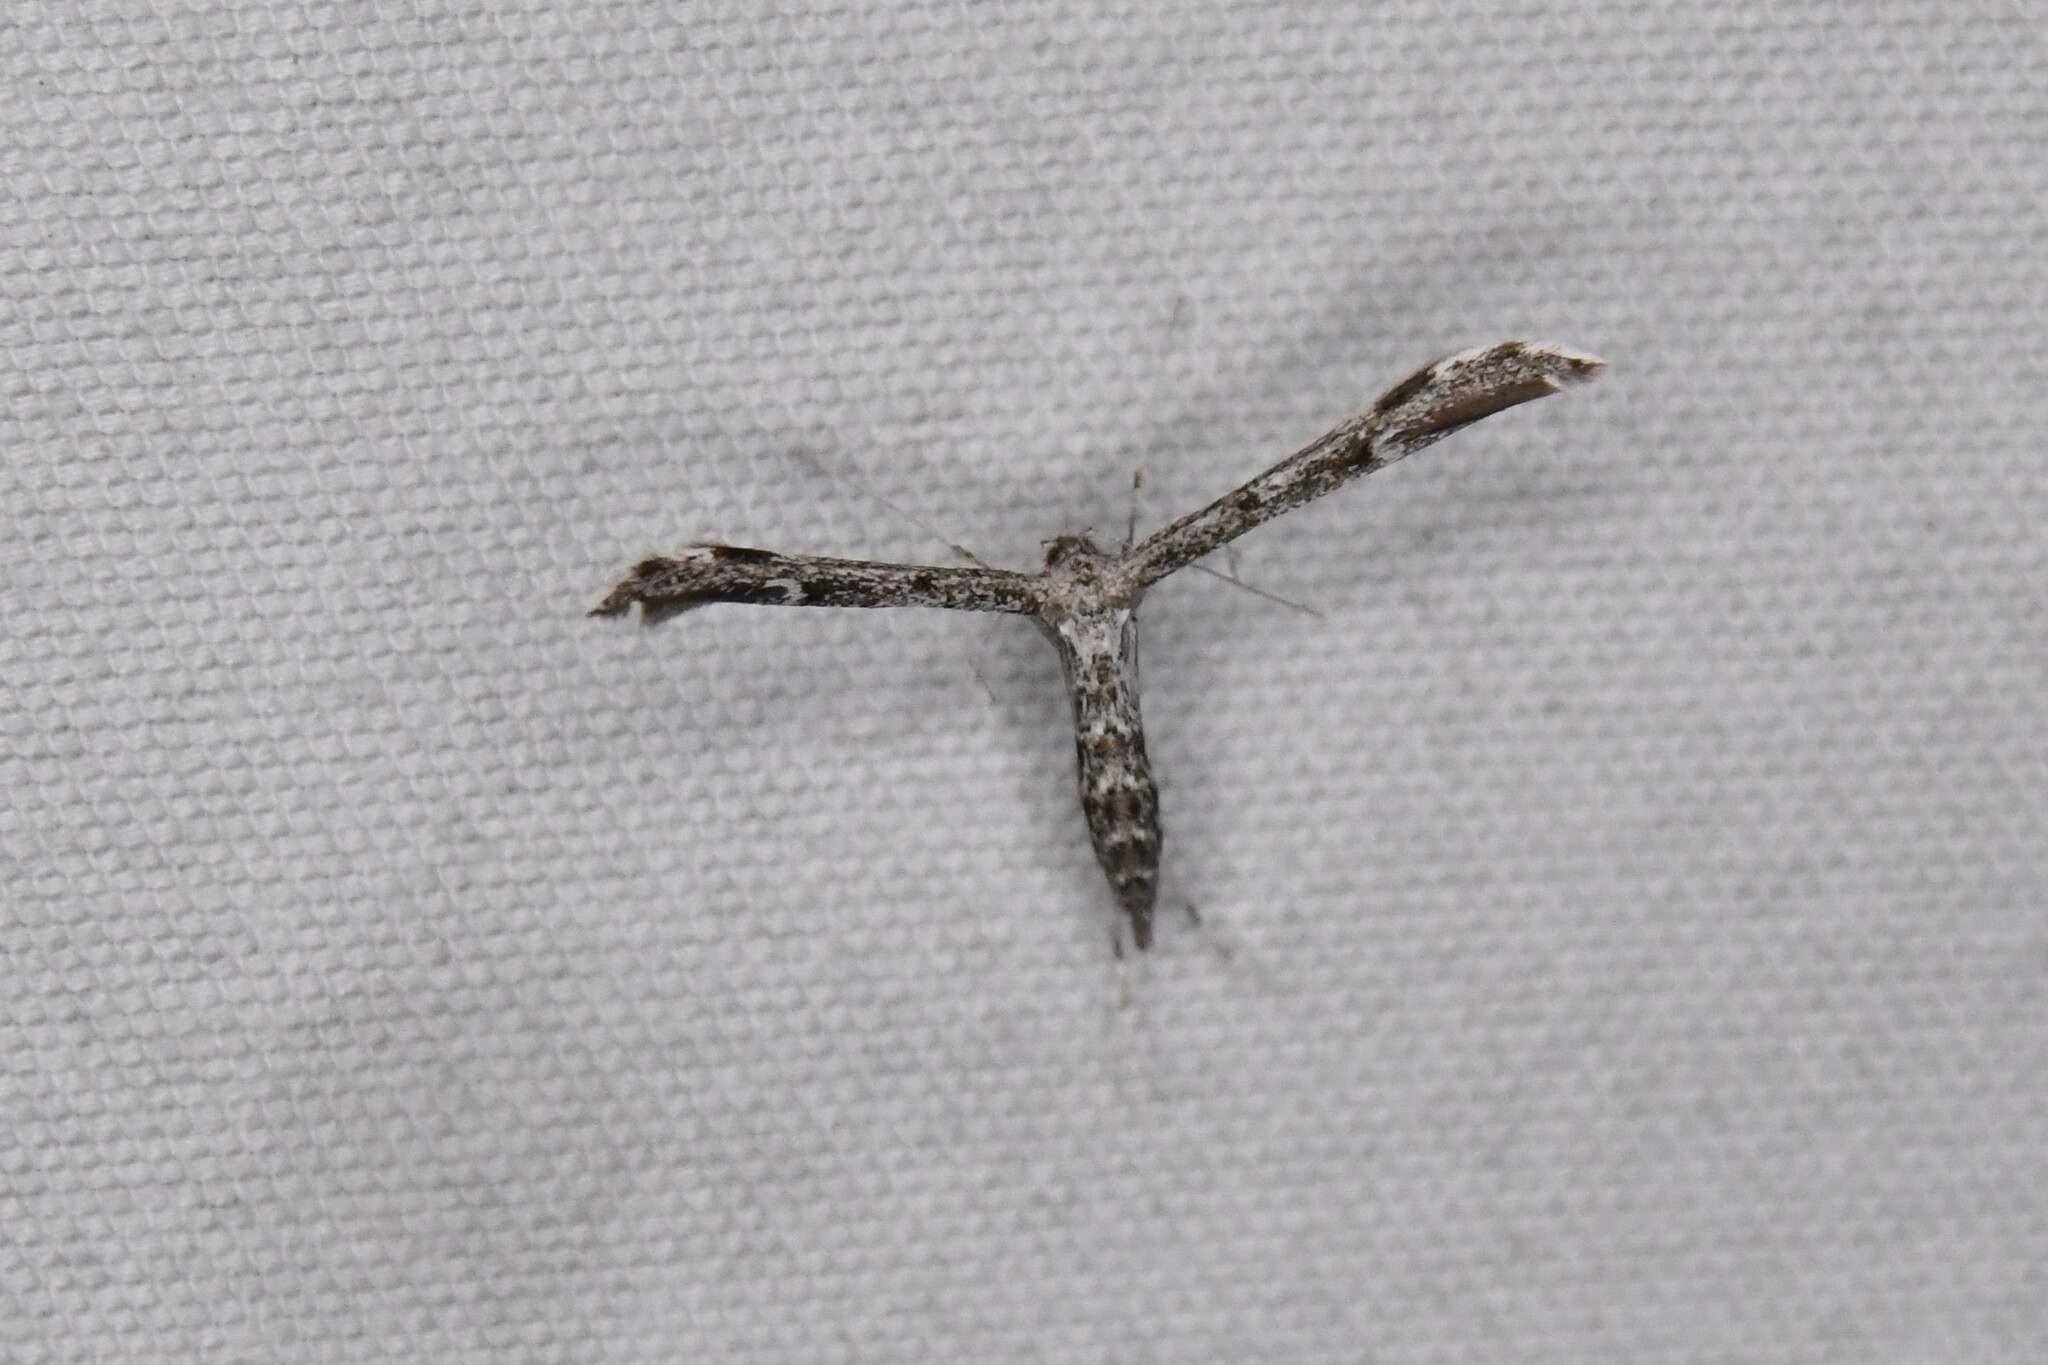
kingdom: Animalia
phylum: Arthropoda
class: Insecta
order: Lepidoptera
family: Pterophoridae
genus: Hellinsia
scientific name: Hellinsia inquinatus
